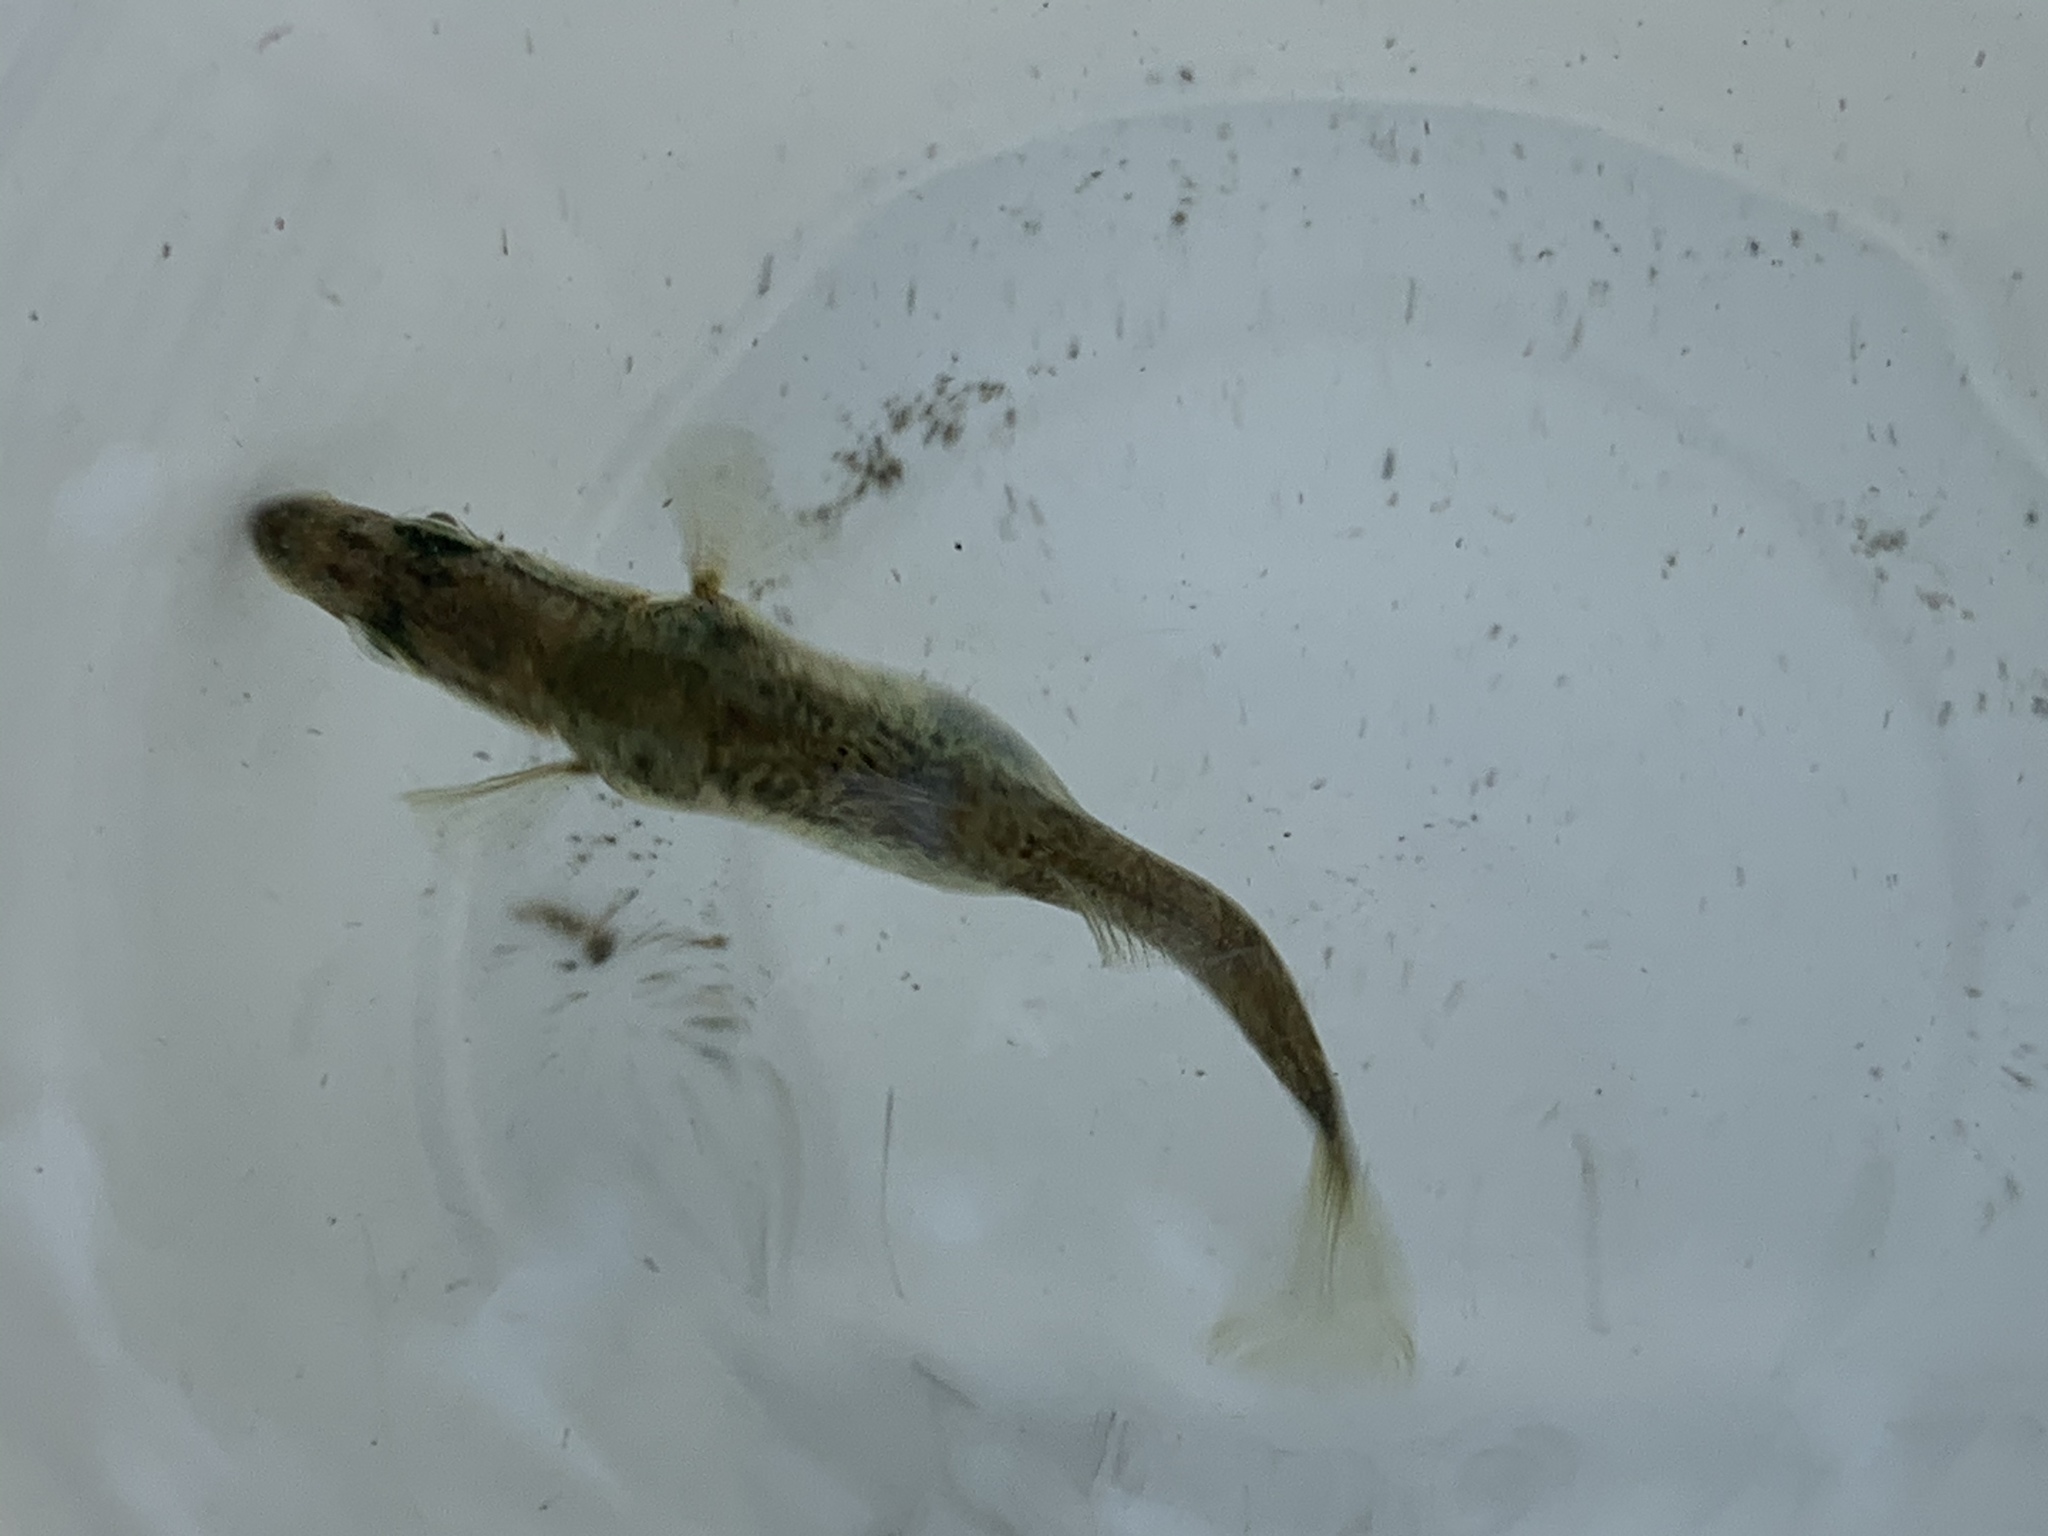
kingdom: Animalia
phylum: Chordata
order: Gasterosteiformes
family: Gasterosteidae
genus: Gasterosteus
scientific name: Gasterosteus aculeatus
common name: Three-spined stickleback
